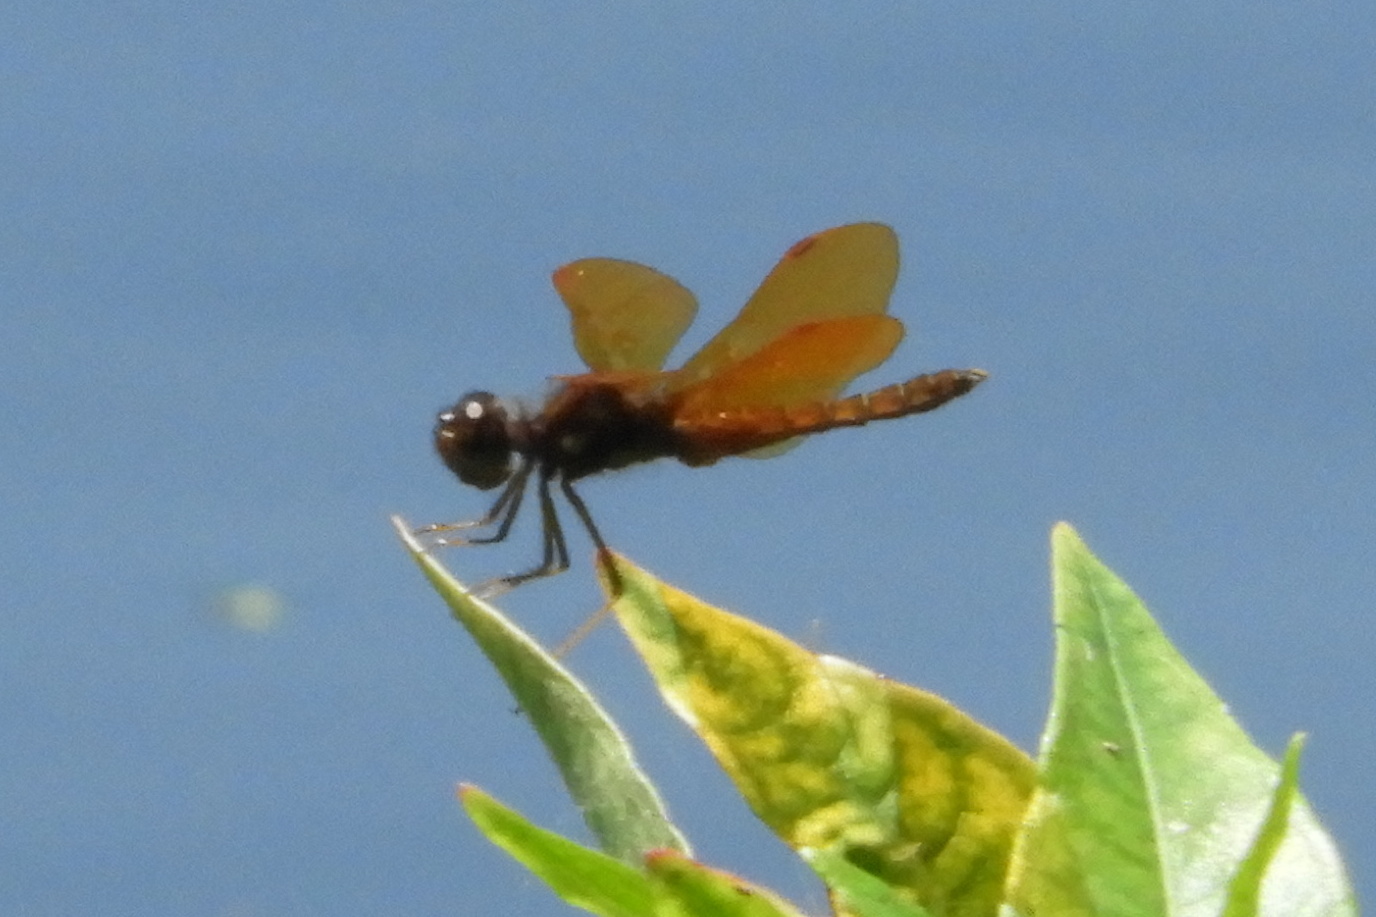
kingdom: Animalia
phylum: Arthropoda
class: Insecta
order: Odonata
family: Libellulidae
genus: Perithemis
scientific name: Perithemis tenera
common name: Eastern amberwing
